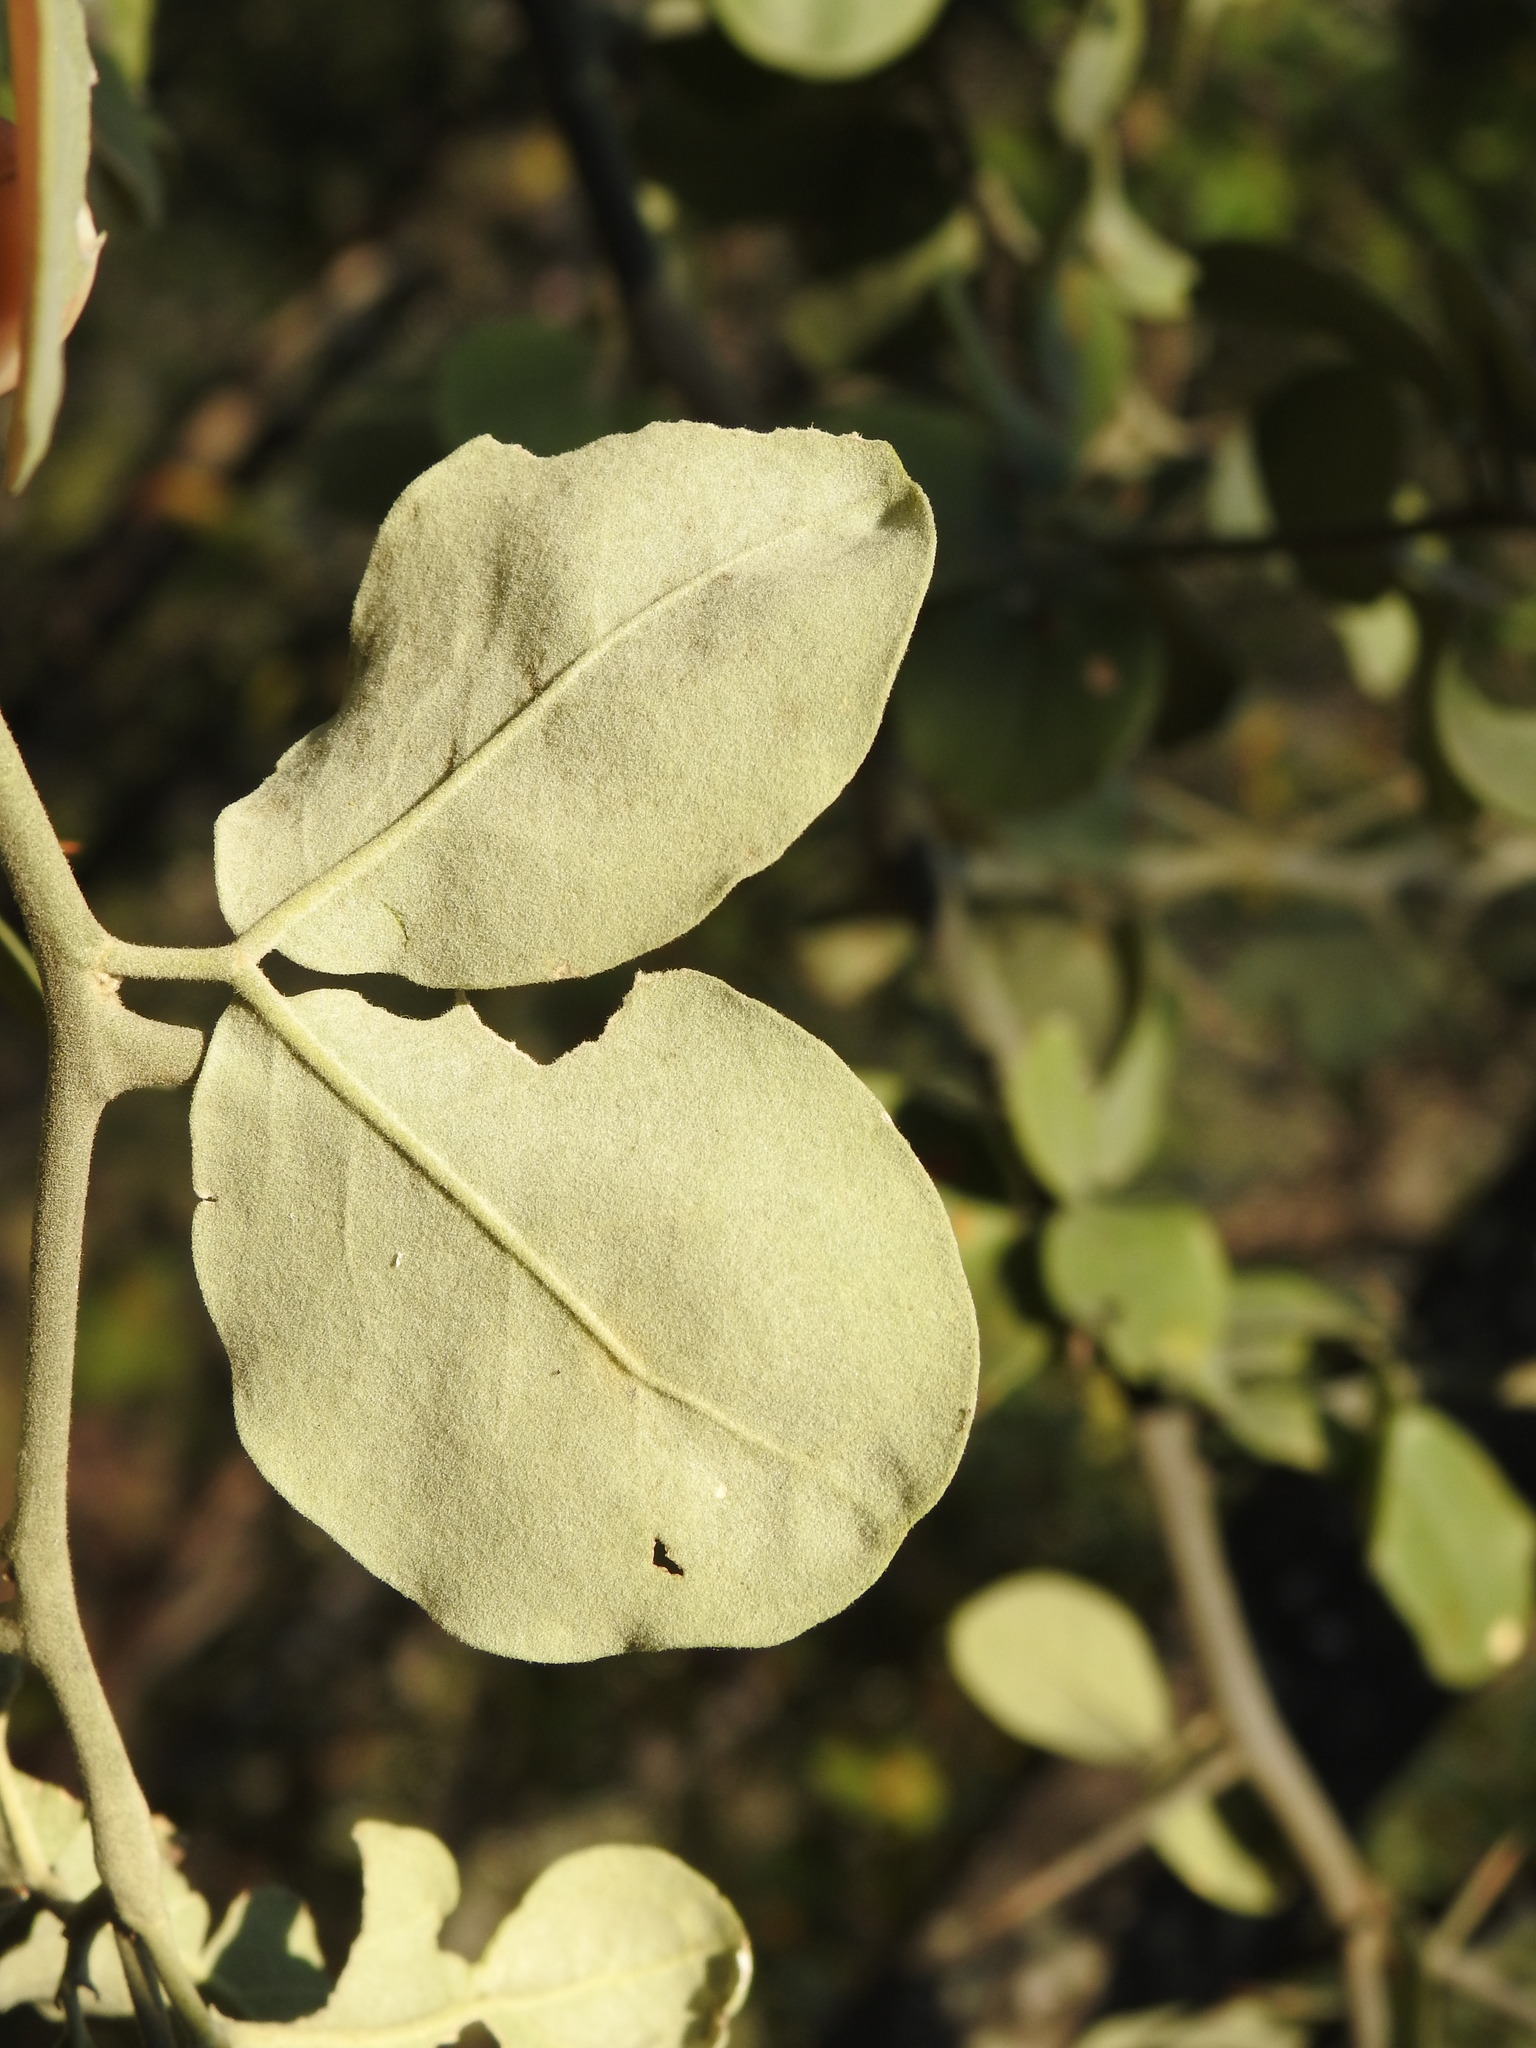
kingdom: Plantae
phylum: Tracheophyta
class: Magnoliopsida
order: Zygophyllales
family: Zygophyllaceae
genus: Balanites
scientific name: Balanites maughamii
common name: Torchwood
